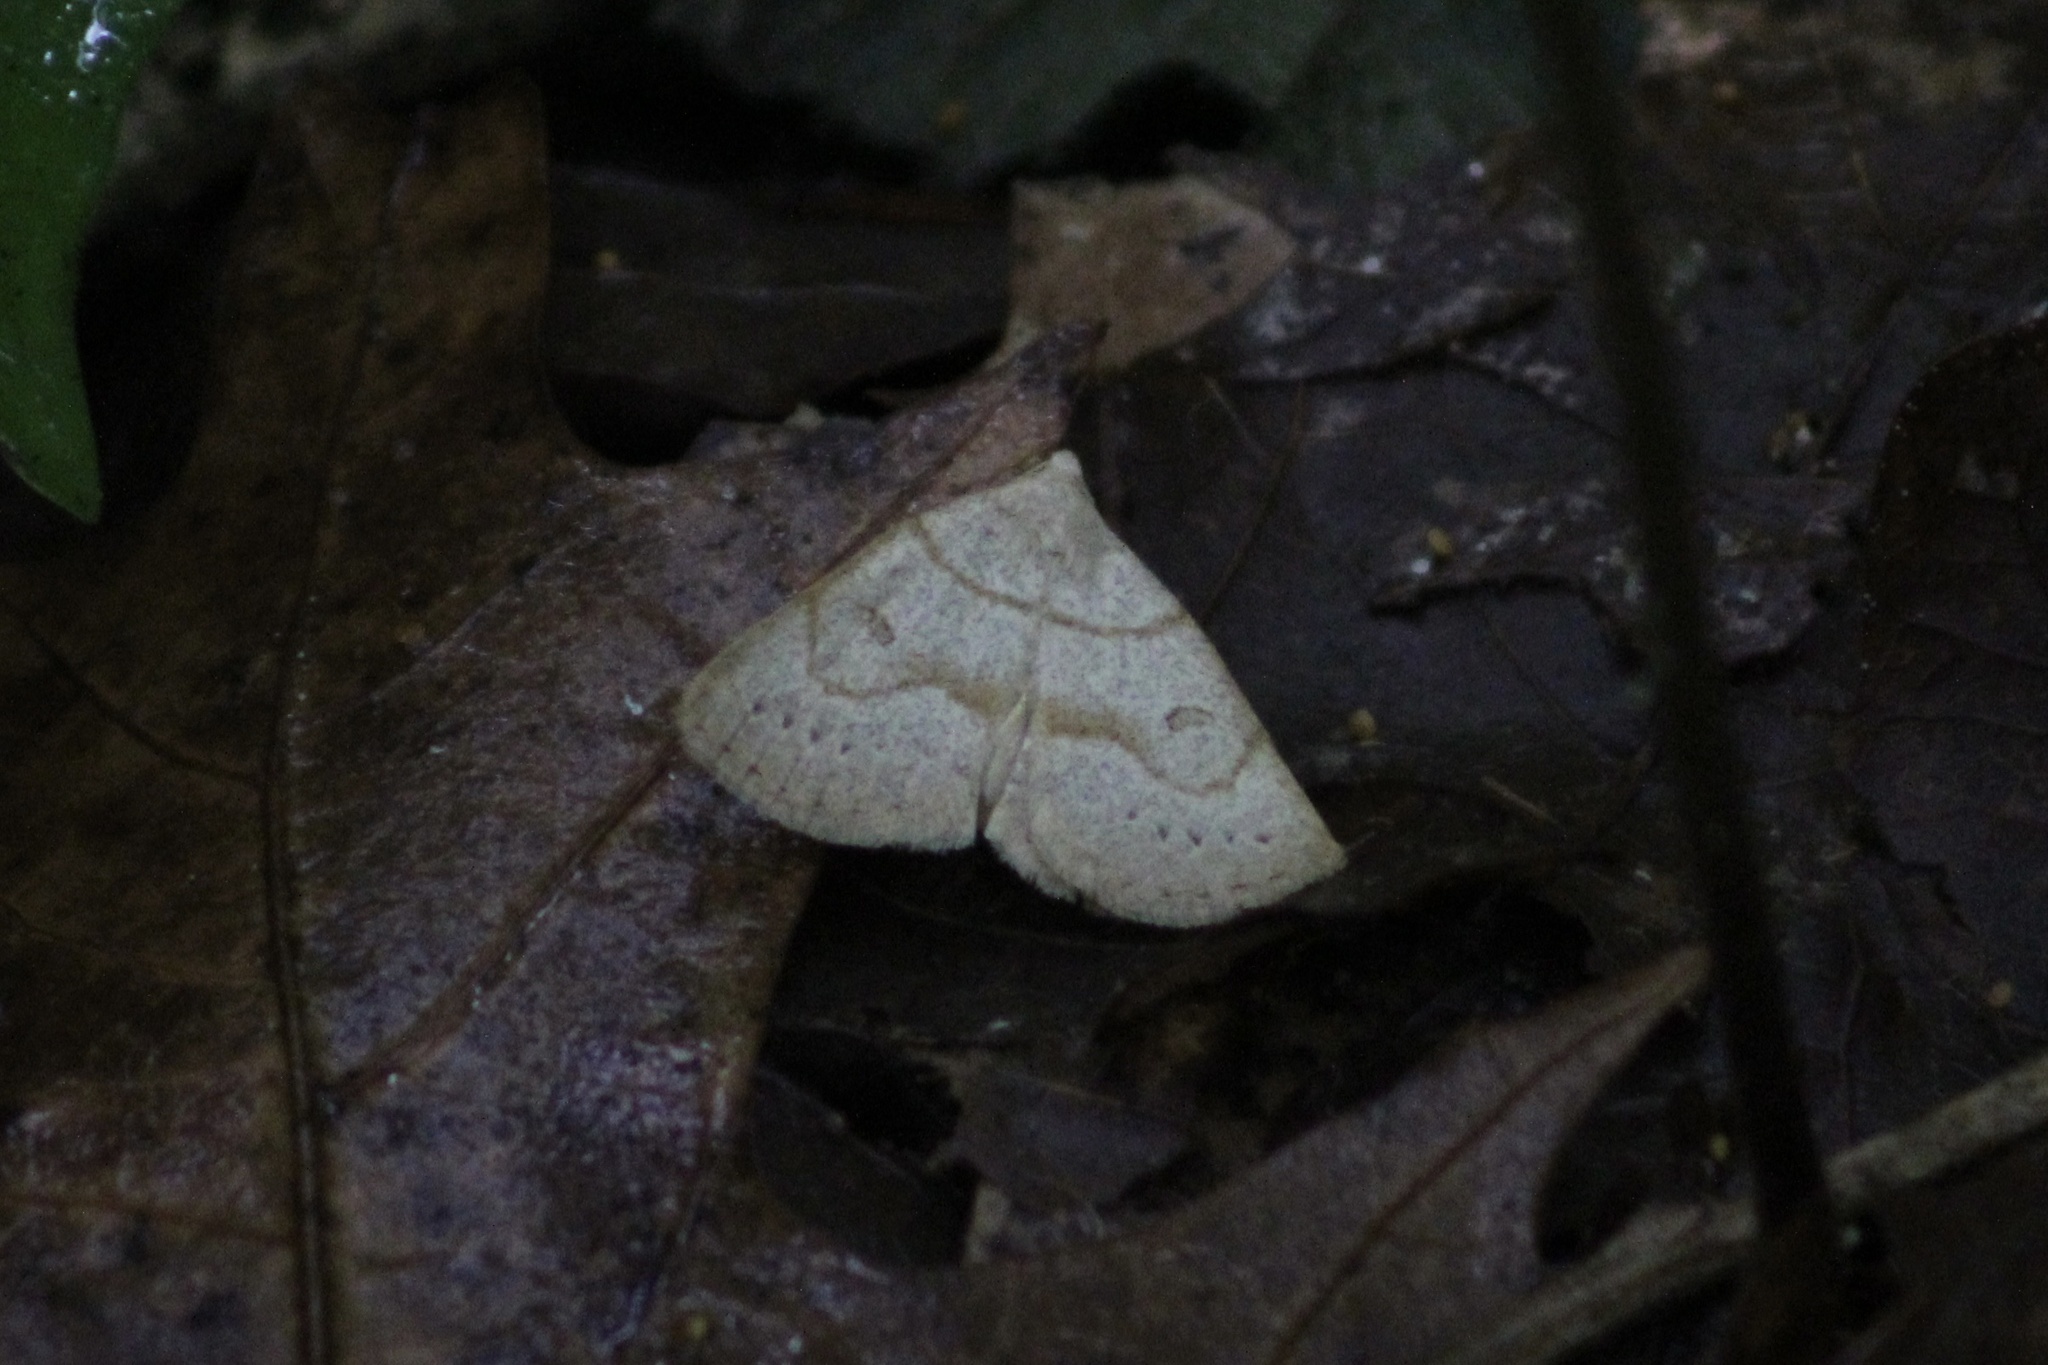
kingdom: Animalia
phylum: Arthropoda
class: Insecta
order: Lepidoptera
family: Erebidae
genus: Macrochilo
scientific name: Macrochilo morbidalis
